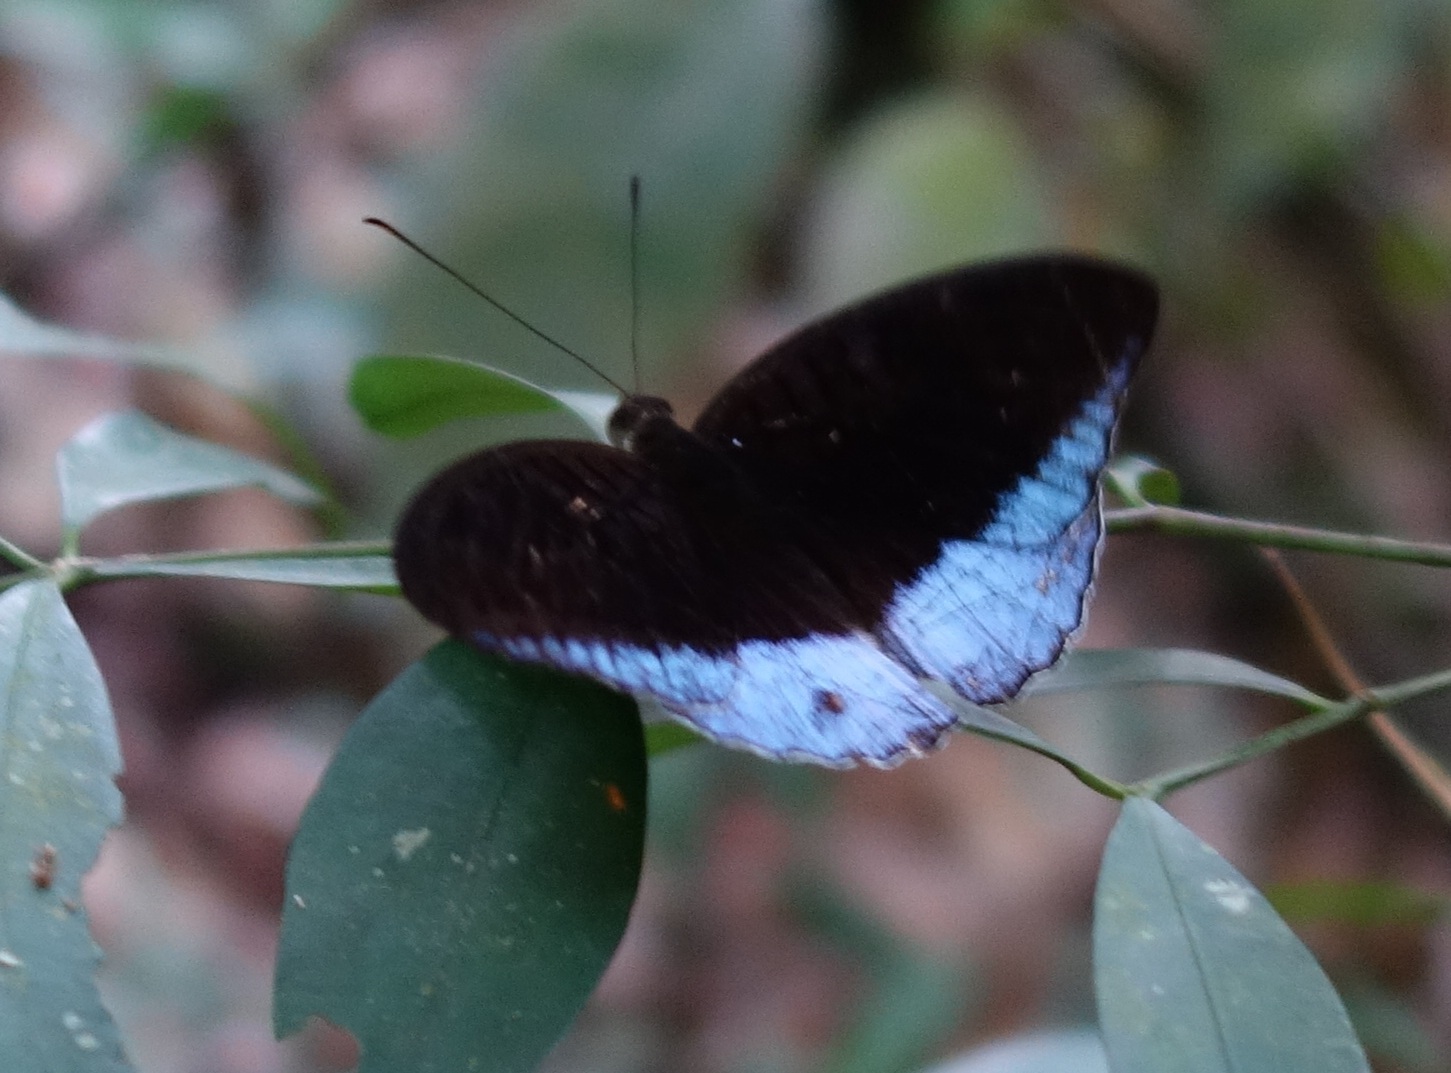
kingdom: Animalia
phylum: Arthropoda
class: Insecta
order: Lepidoptera
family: Nymphalidae
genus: Tanaecia
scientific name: Tanaecia iapis
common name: Horsfield's baron
